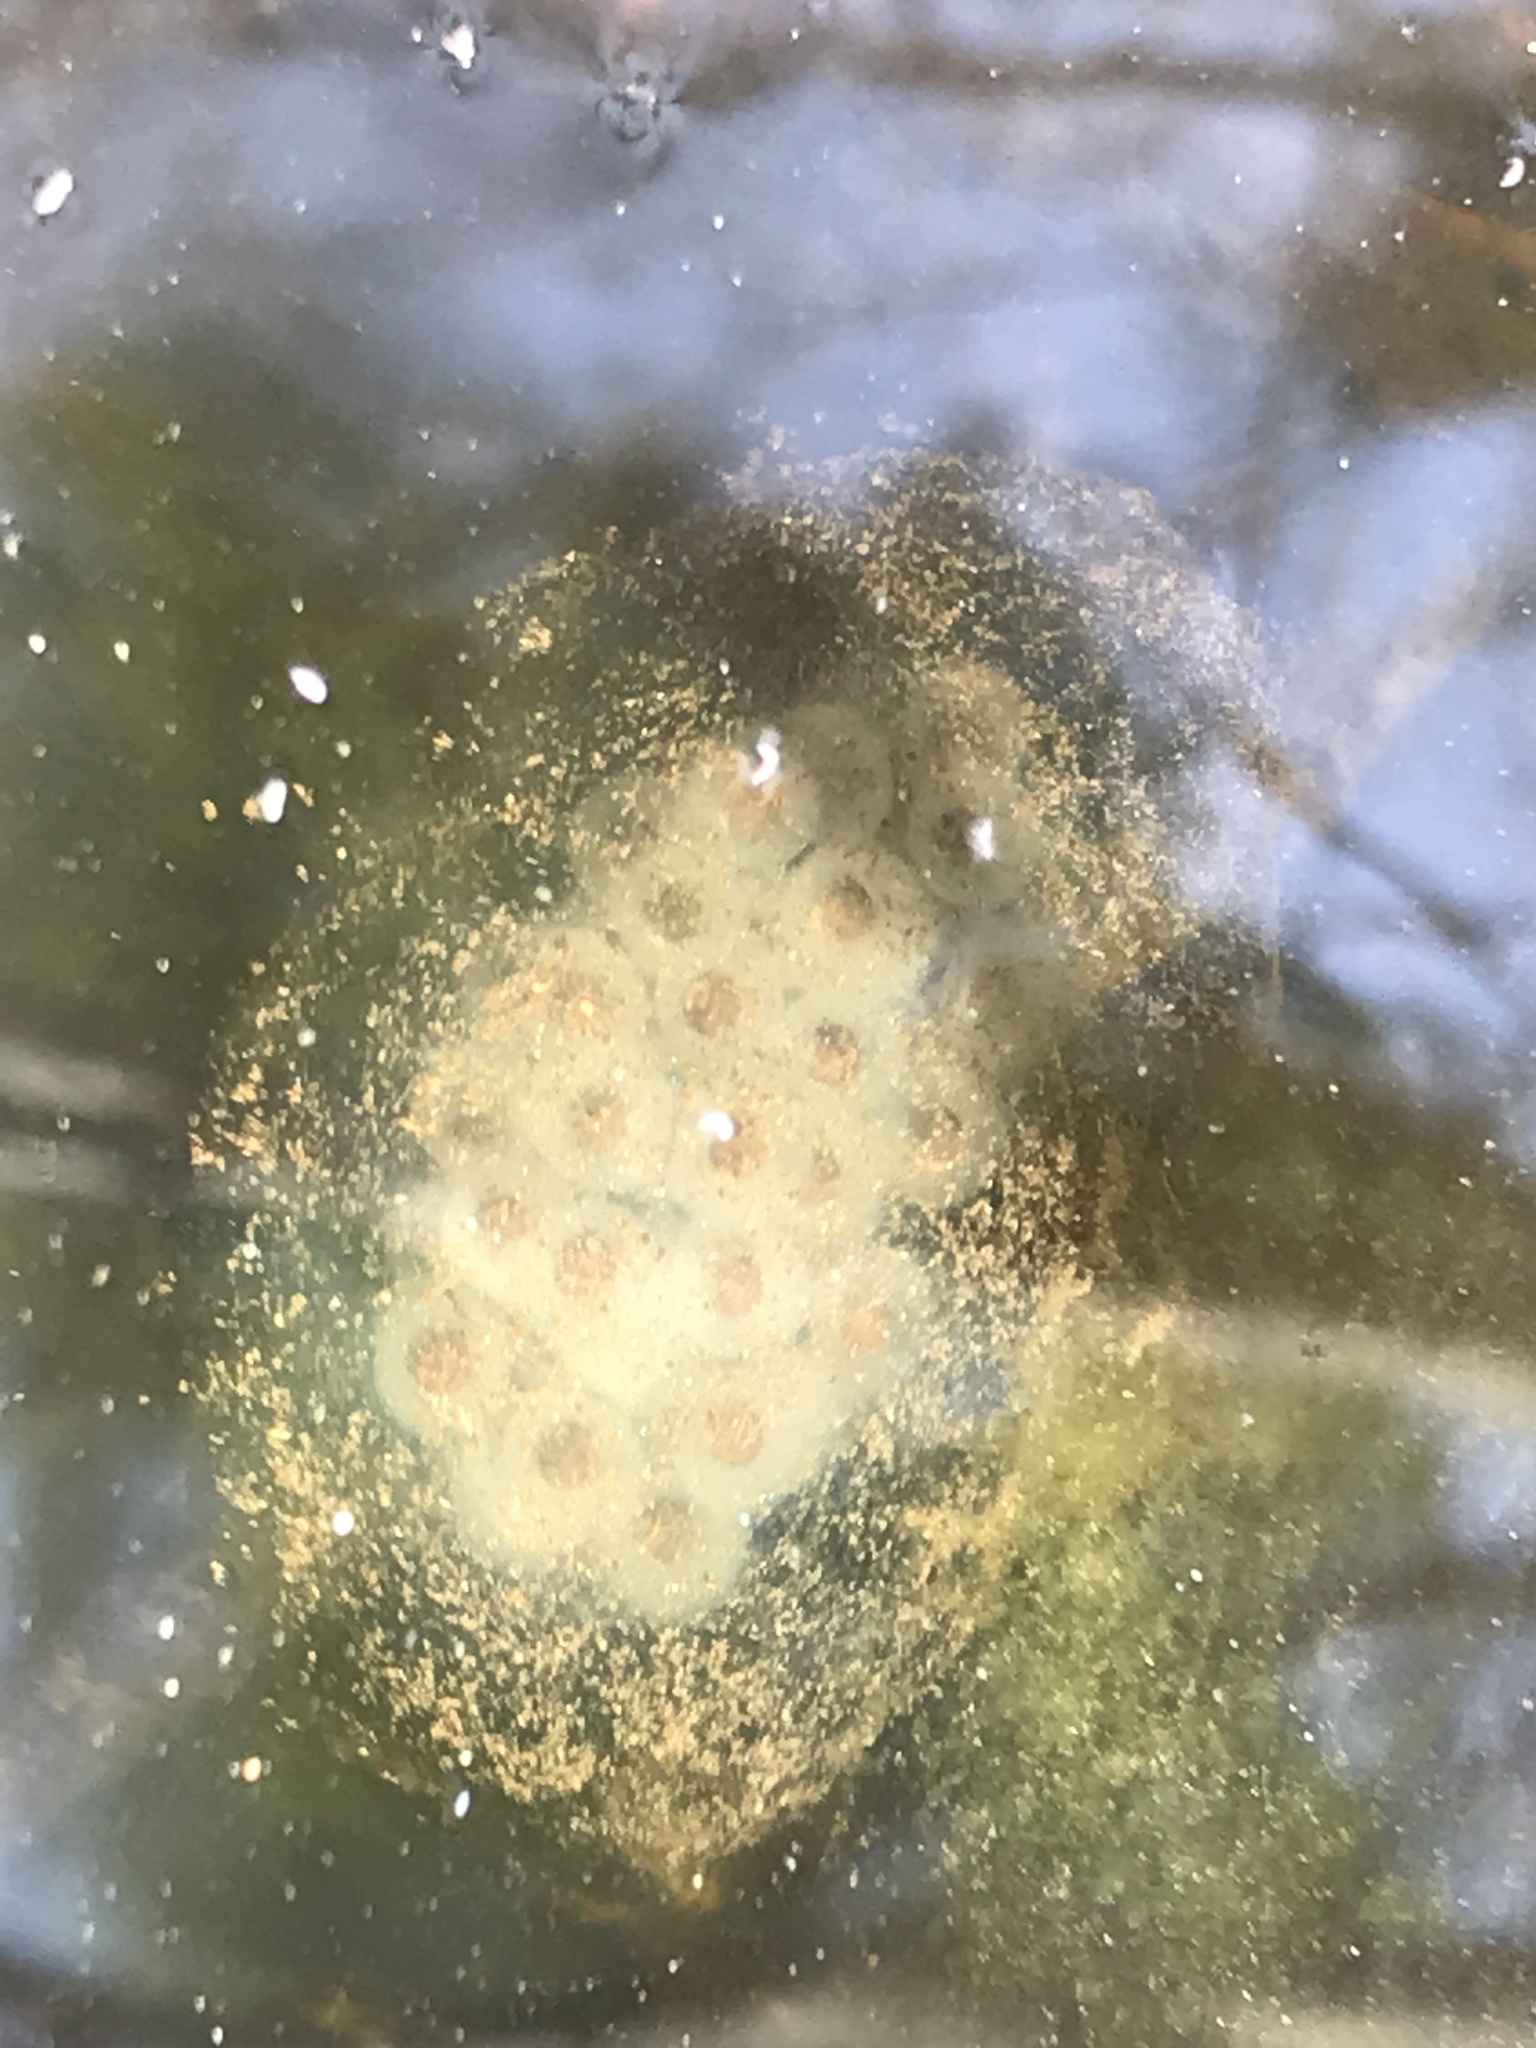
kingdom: Animalia
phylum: Chordata
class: Amphibia
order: Caudata
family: Ambystomatidae
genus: Ambystoma
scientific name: Ambystoma maculatum
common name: Spotted salamander
